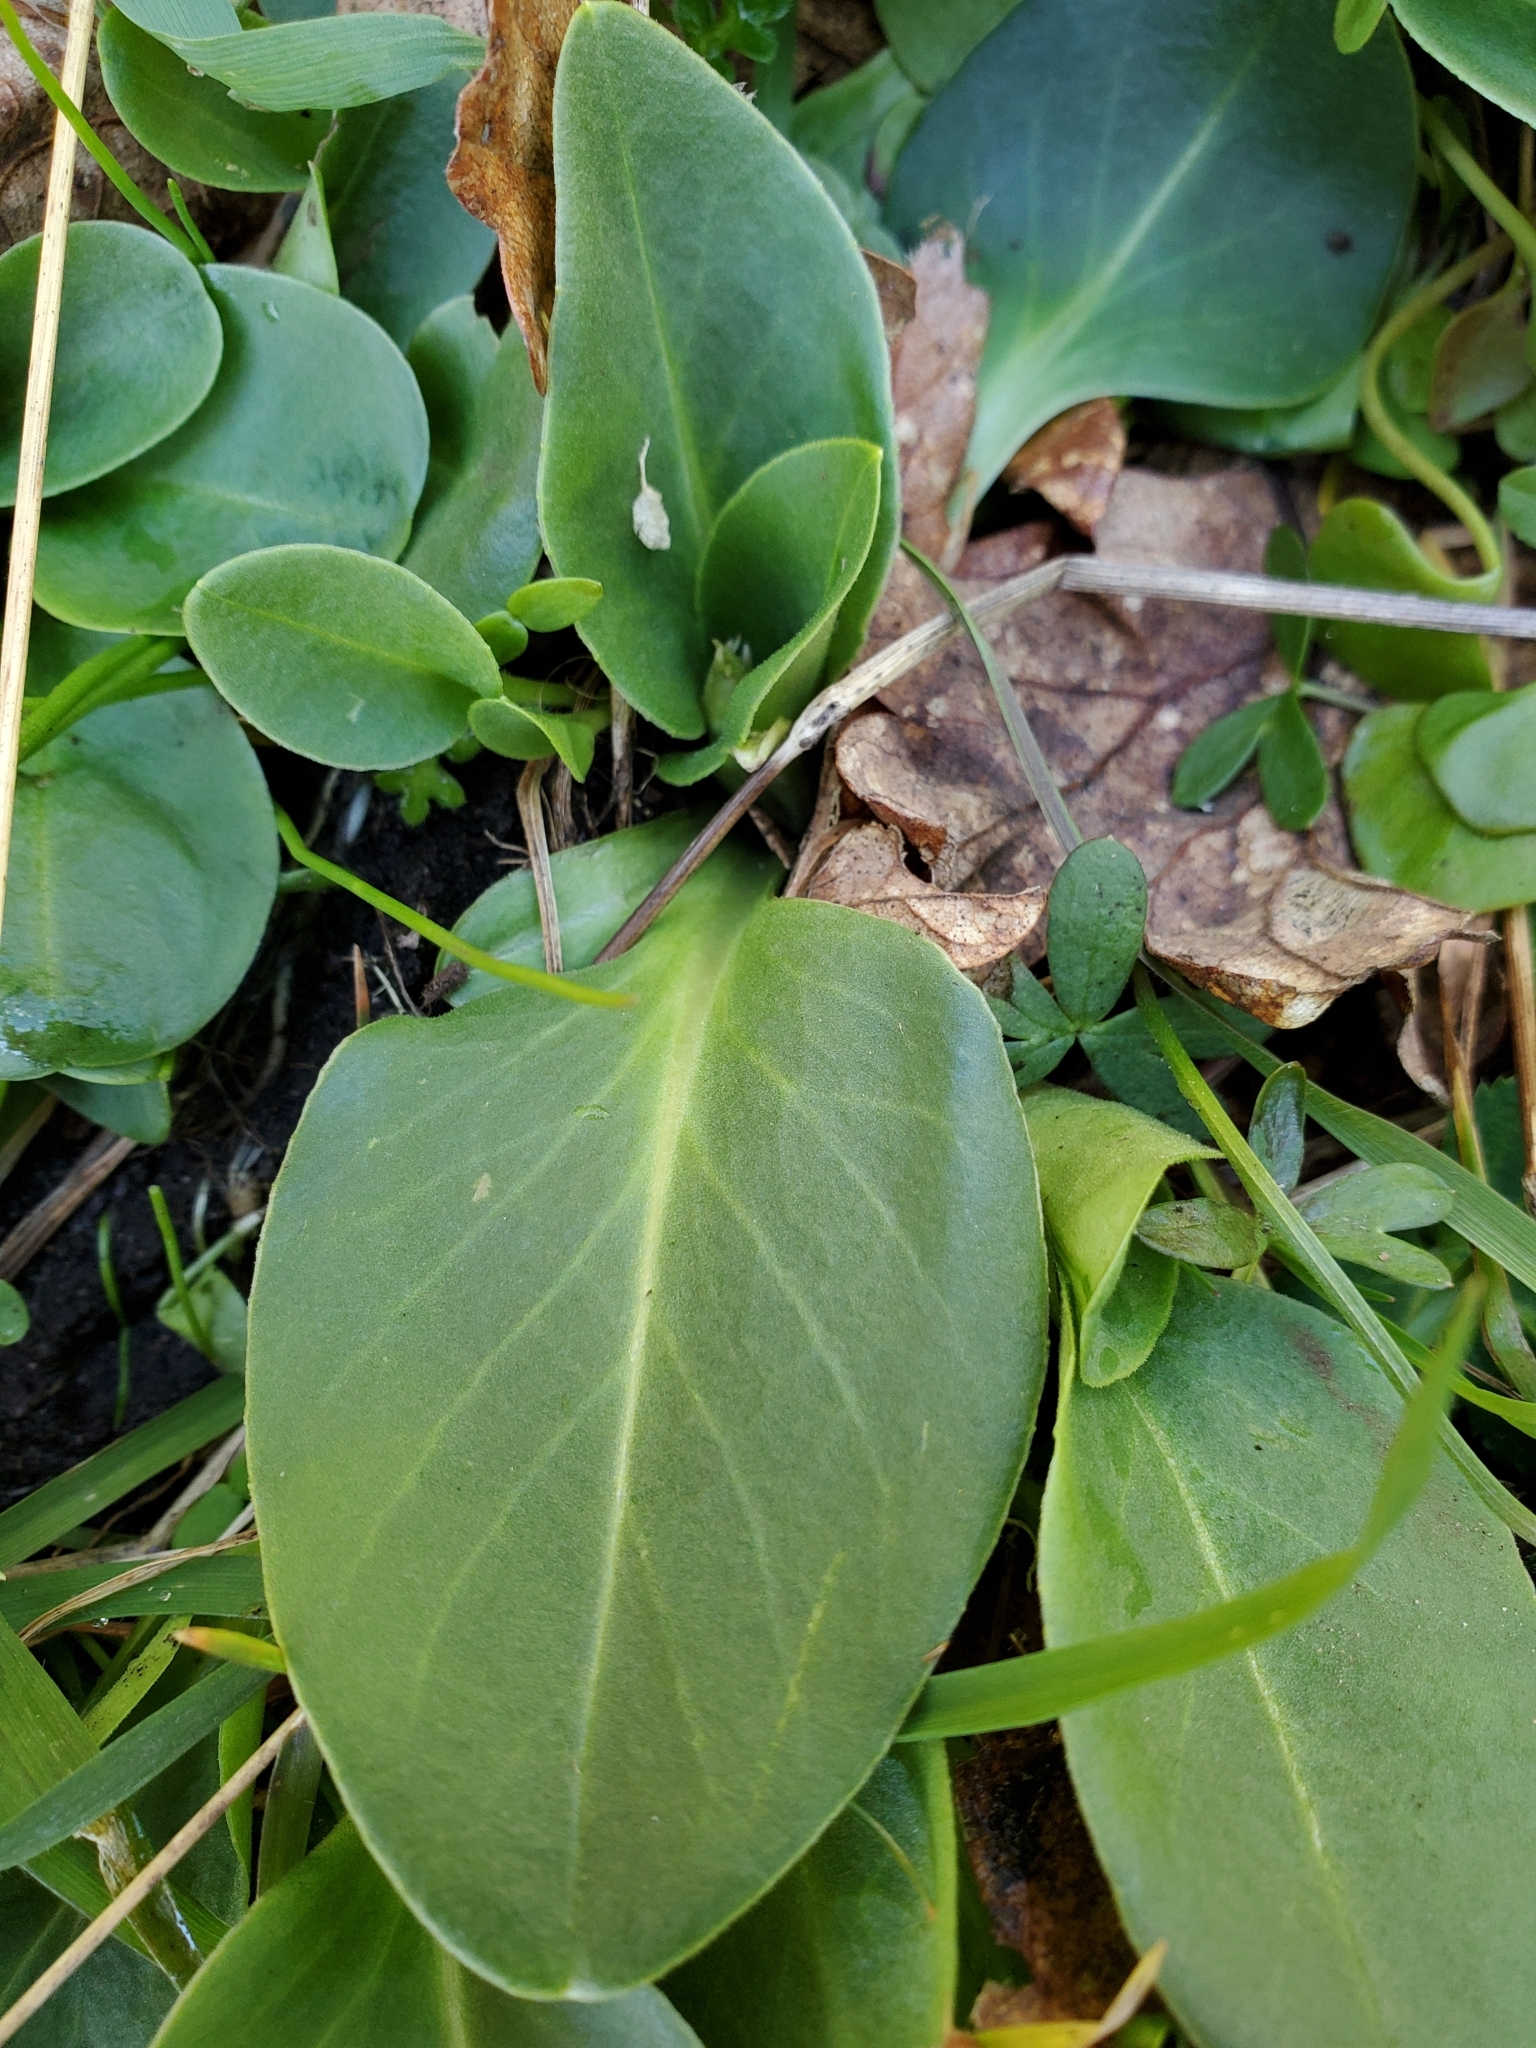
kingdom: Plantae
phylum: Tracheophyta
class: Magnoliopsida
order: Ericales
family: Primulaceae
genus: Dodecatheon
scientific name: Dodecatheon hendersonii
